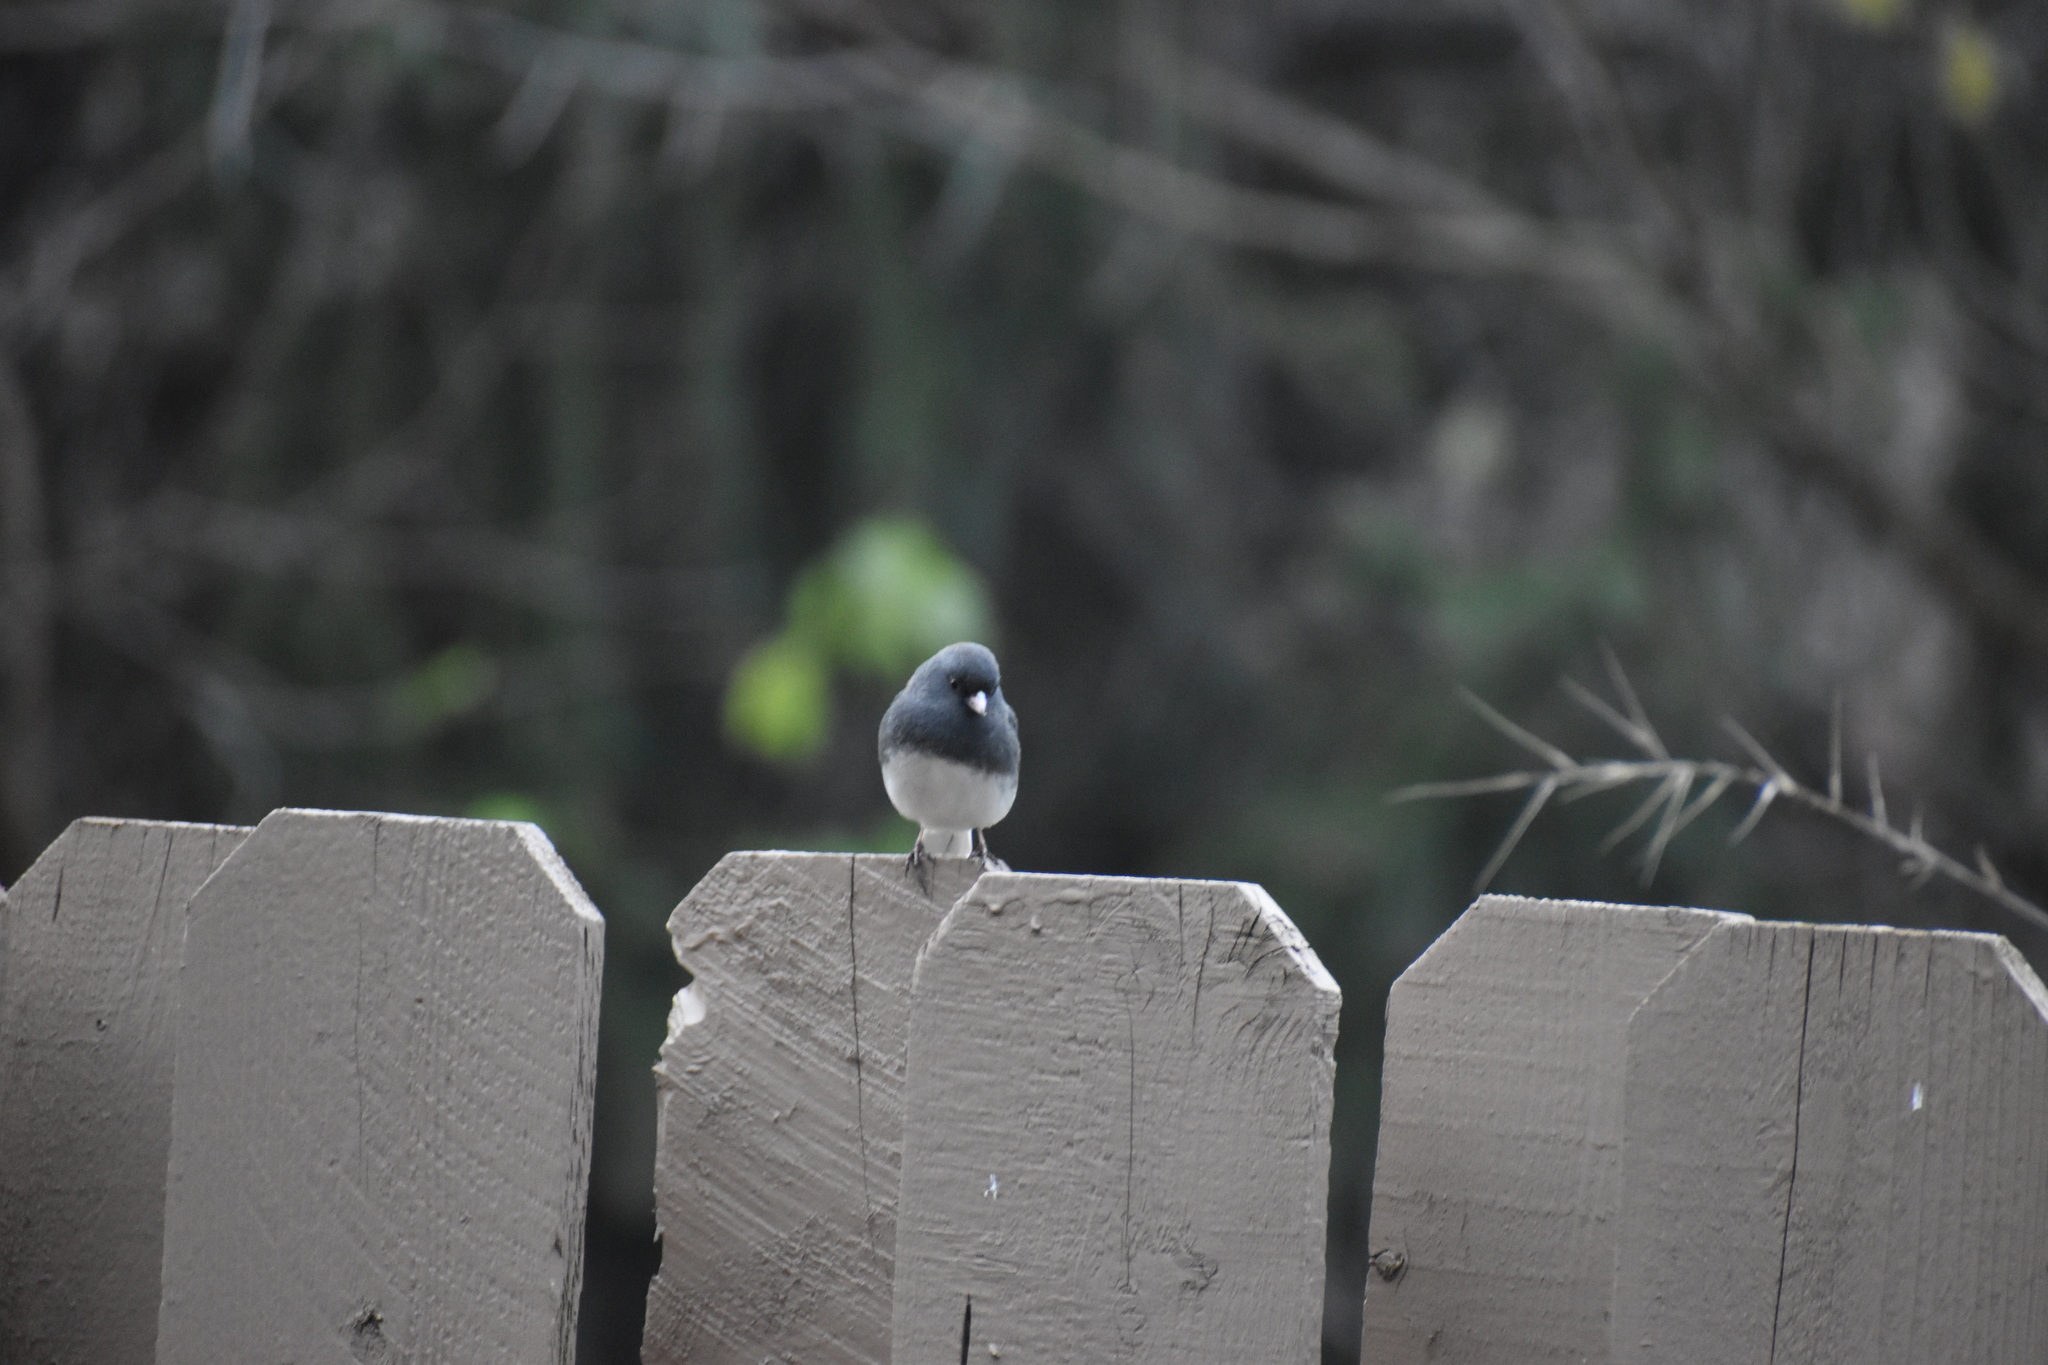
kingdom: Animalia
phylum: Chordata
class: Aves
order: Passeriformes
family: Passerellidae
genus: Junco
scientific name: Junco hyemalis
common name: Dark-eyed junco
